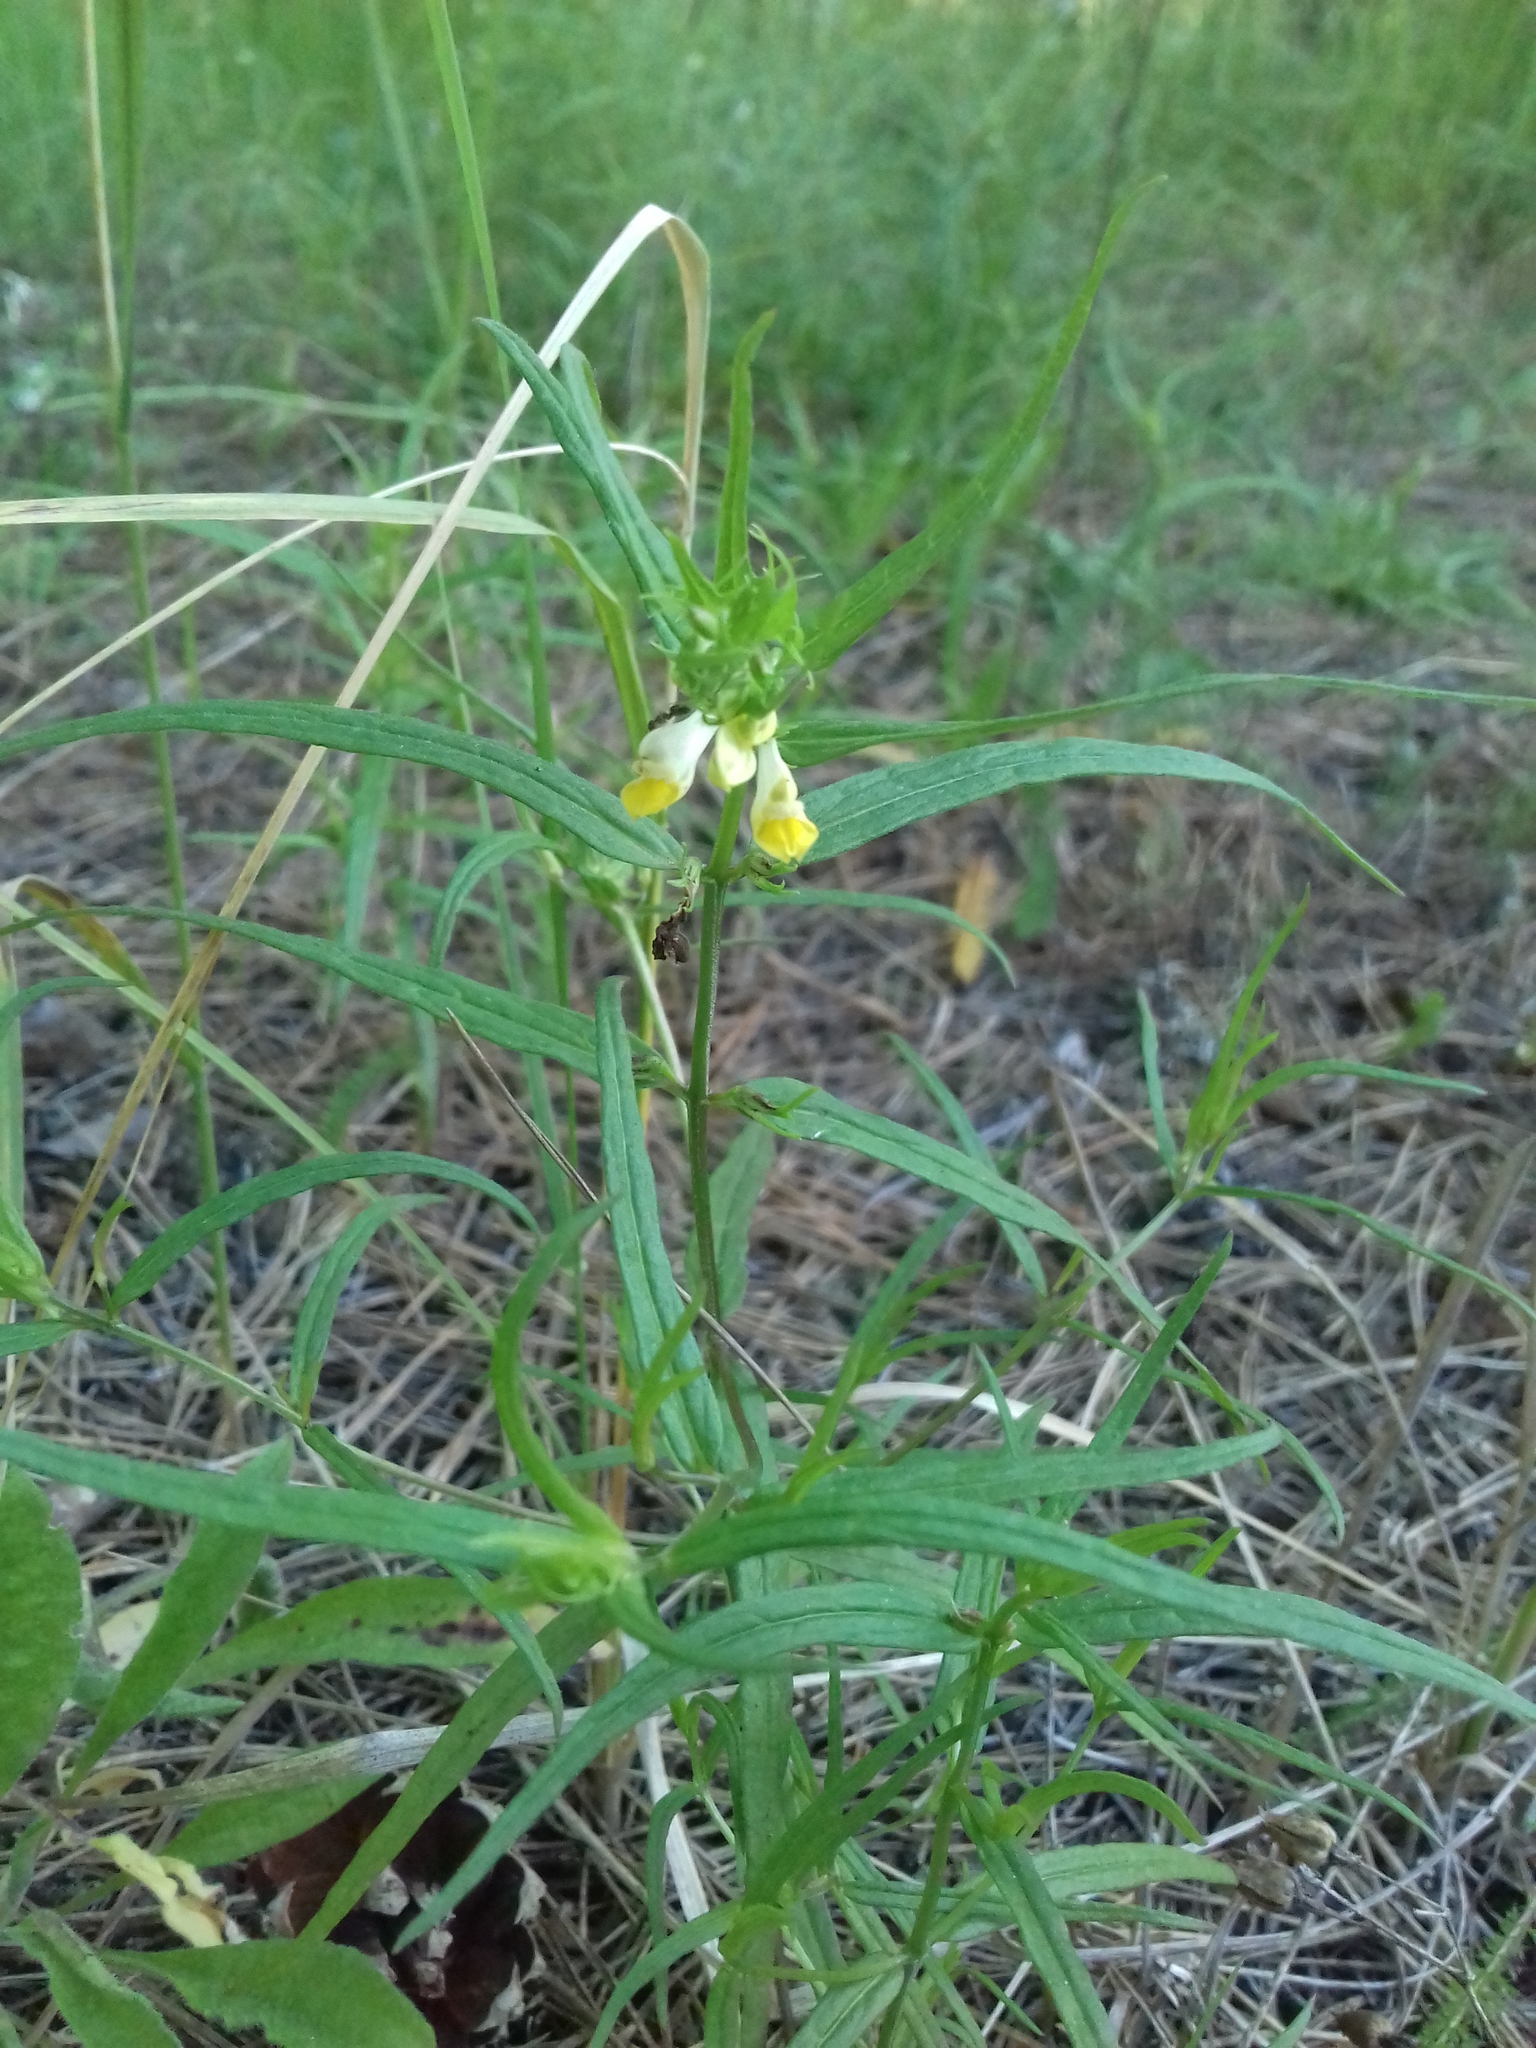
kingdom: Plantae
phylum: Tracheophyta
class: Magnoliopsida
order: Lamiales
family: Orobanchaceae
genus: Melampyrum
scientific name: Melampyrum pratense
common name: Common cow-wheat
